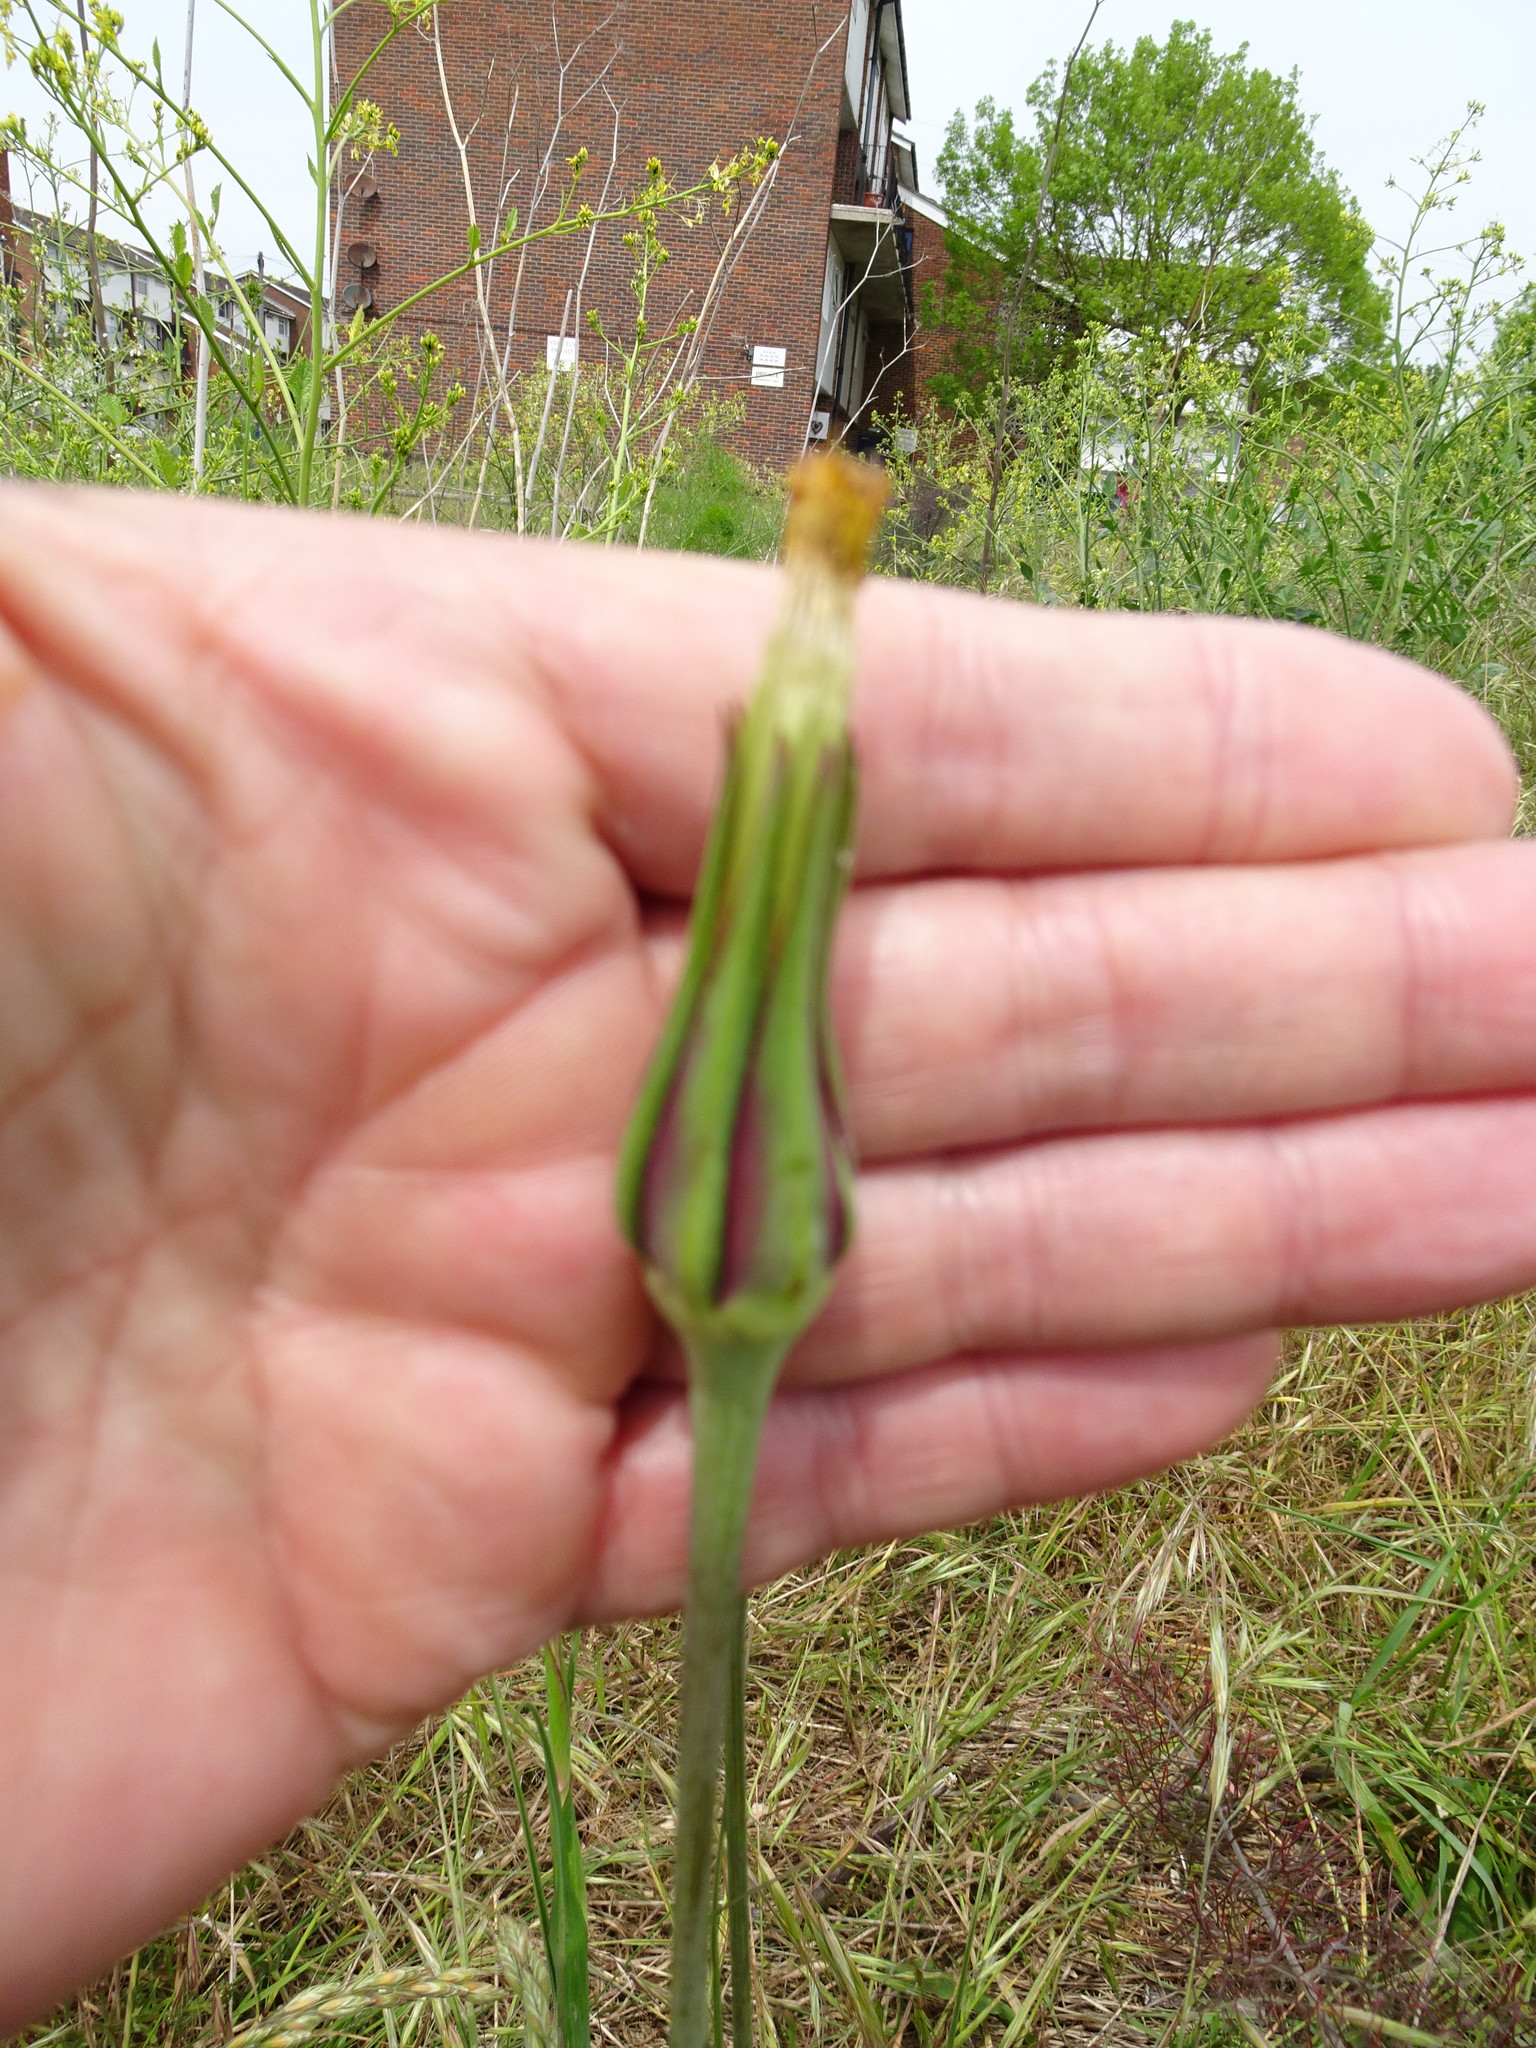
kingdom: Plantae
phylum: Tracheophyta
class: Magnoliopsida
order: Asterales
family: Asteraceae
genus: Tragopogon
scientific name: Tragopogon pratensis
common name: Goat's-beard
